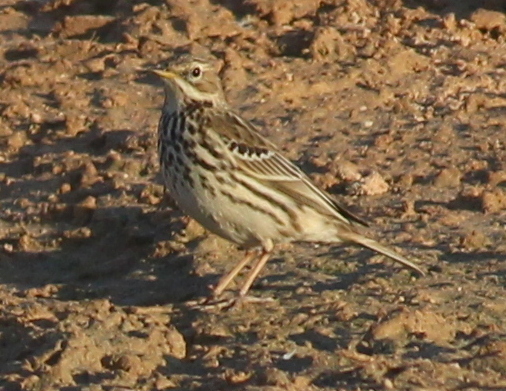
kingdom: Animalia
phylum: Chordata
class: Aves
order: Passeriformes
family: Motacillidae
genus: Anthus
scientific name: Anthus pratensis
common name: Meadow pipit
